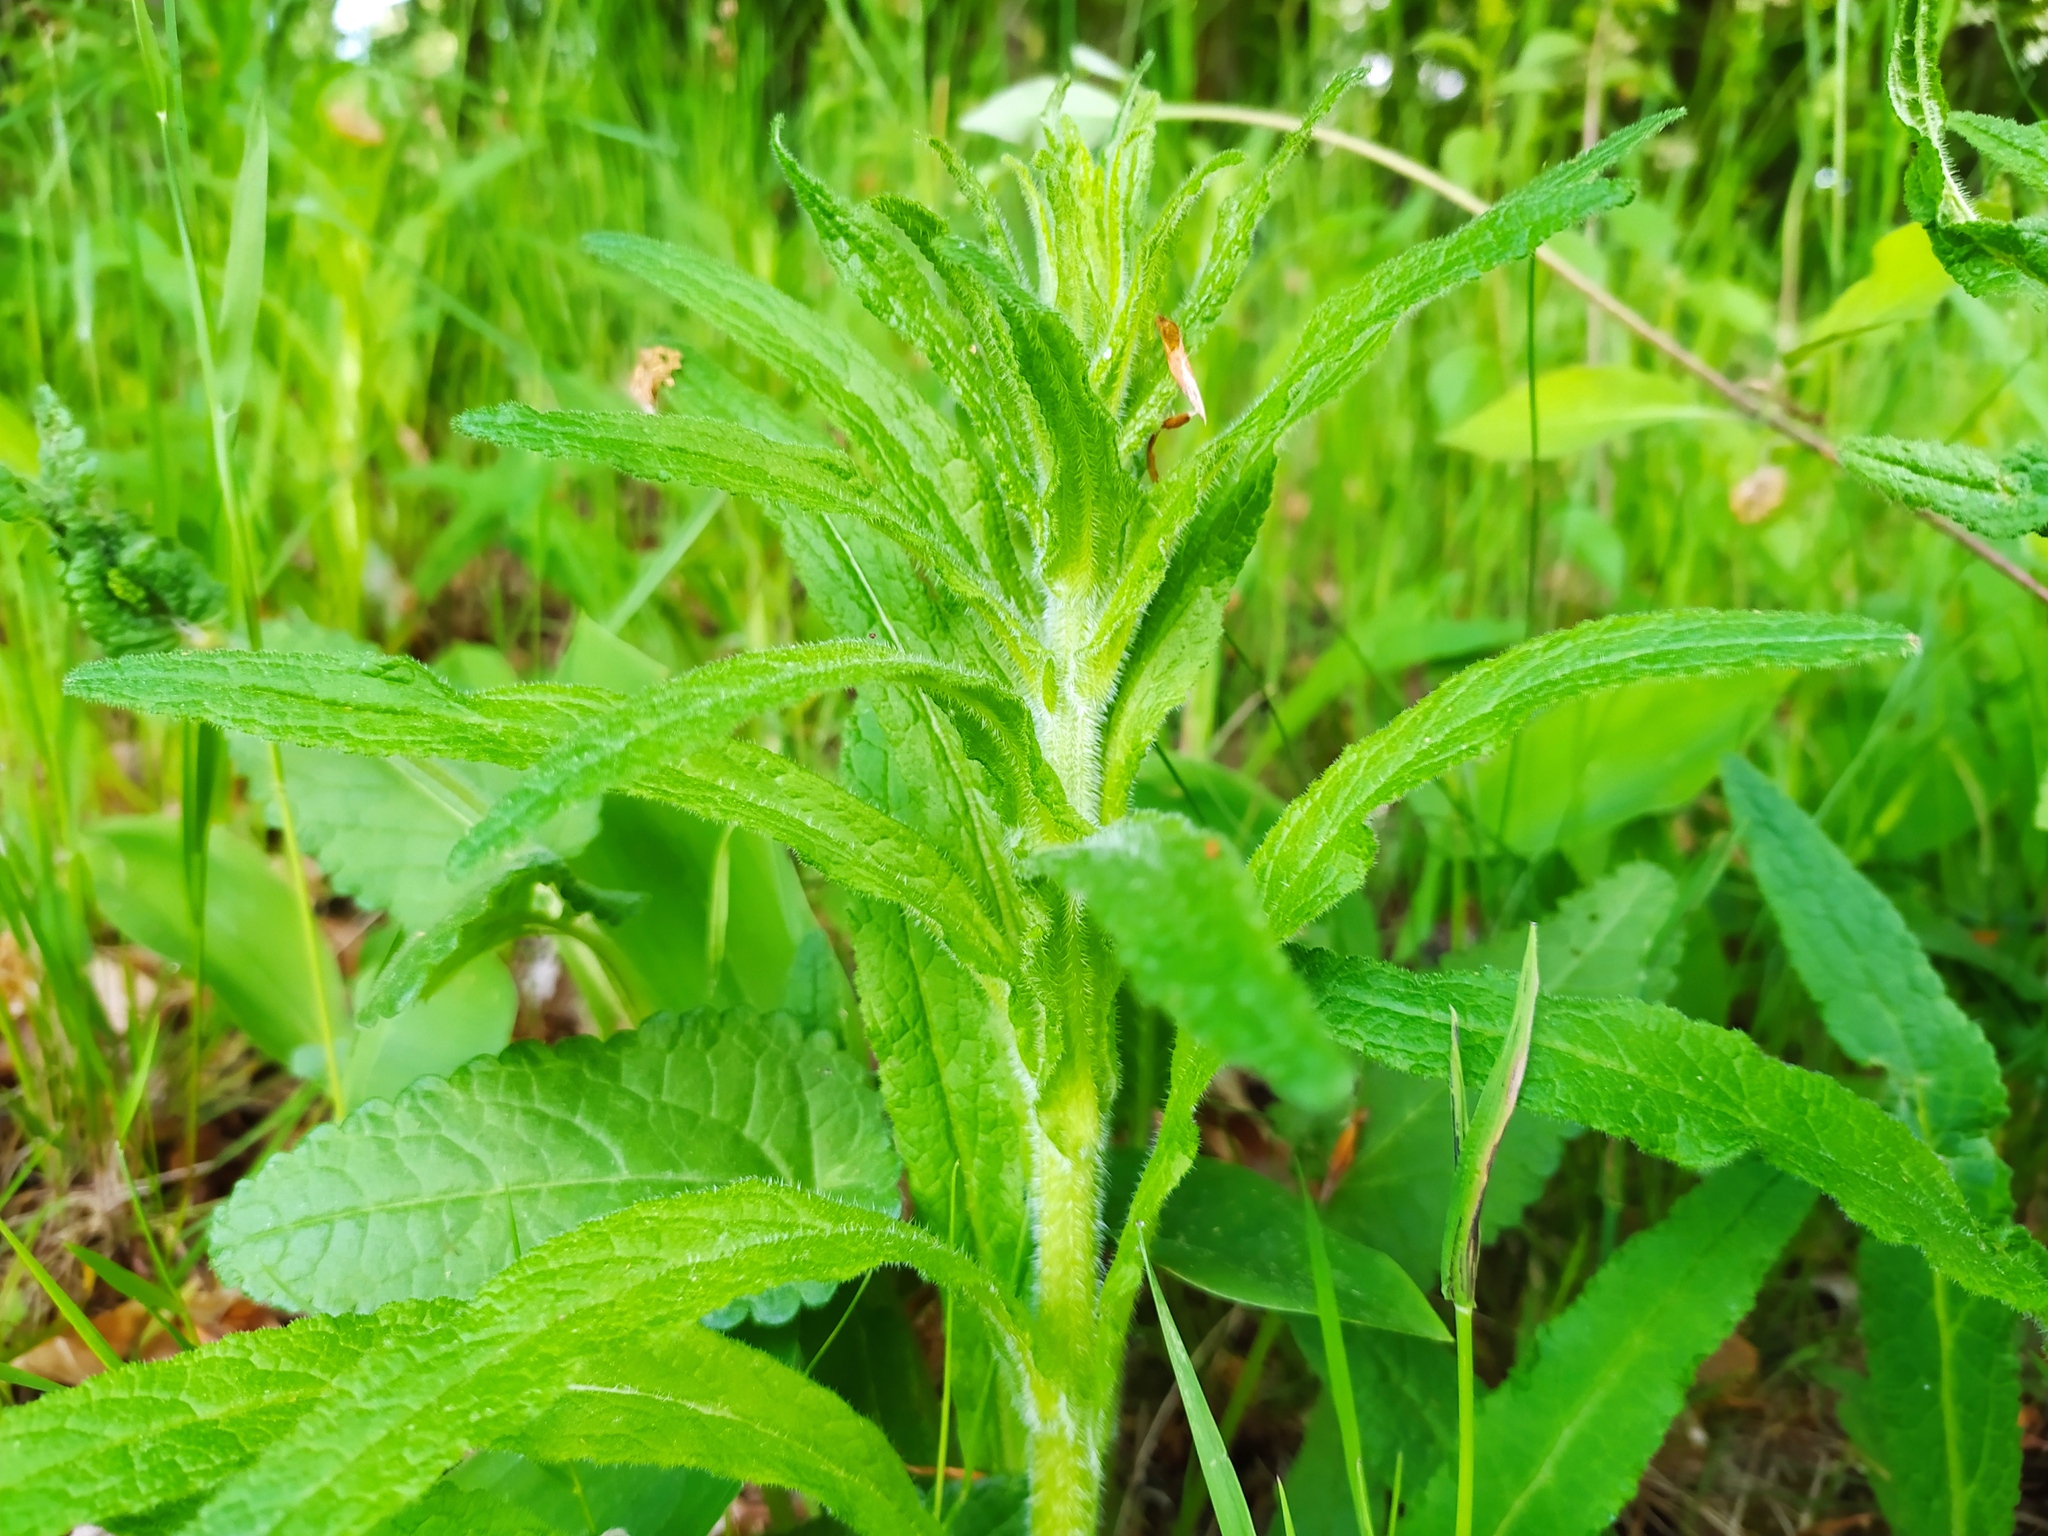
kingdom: Plantae
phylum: Tracheophyta
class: Magnoliopsida
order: Asterales
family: Campanulaceae
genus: Campanula
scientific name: Campanula cervicaria
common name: Bristly bellflower
